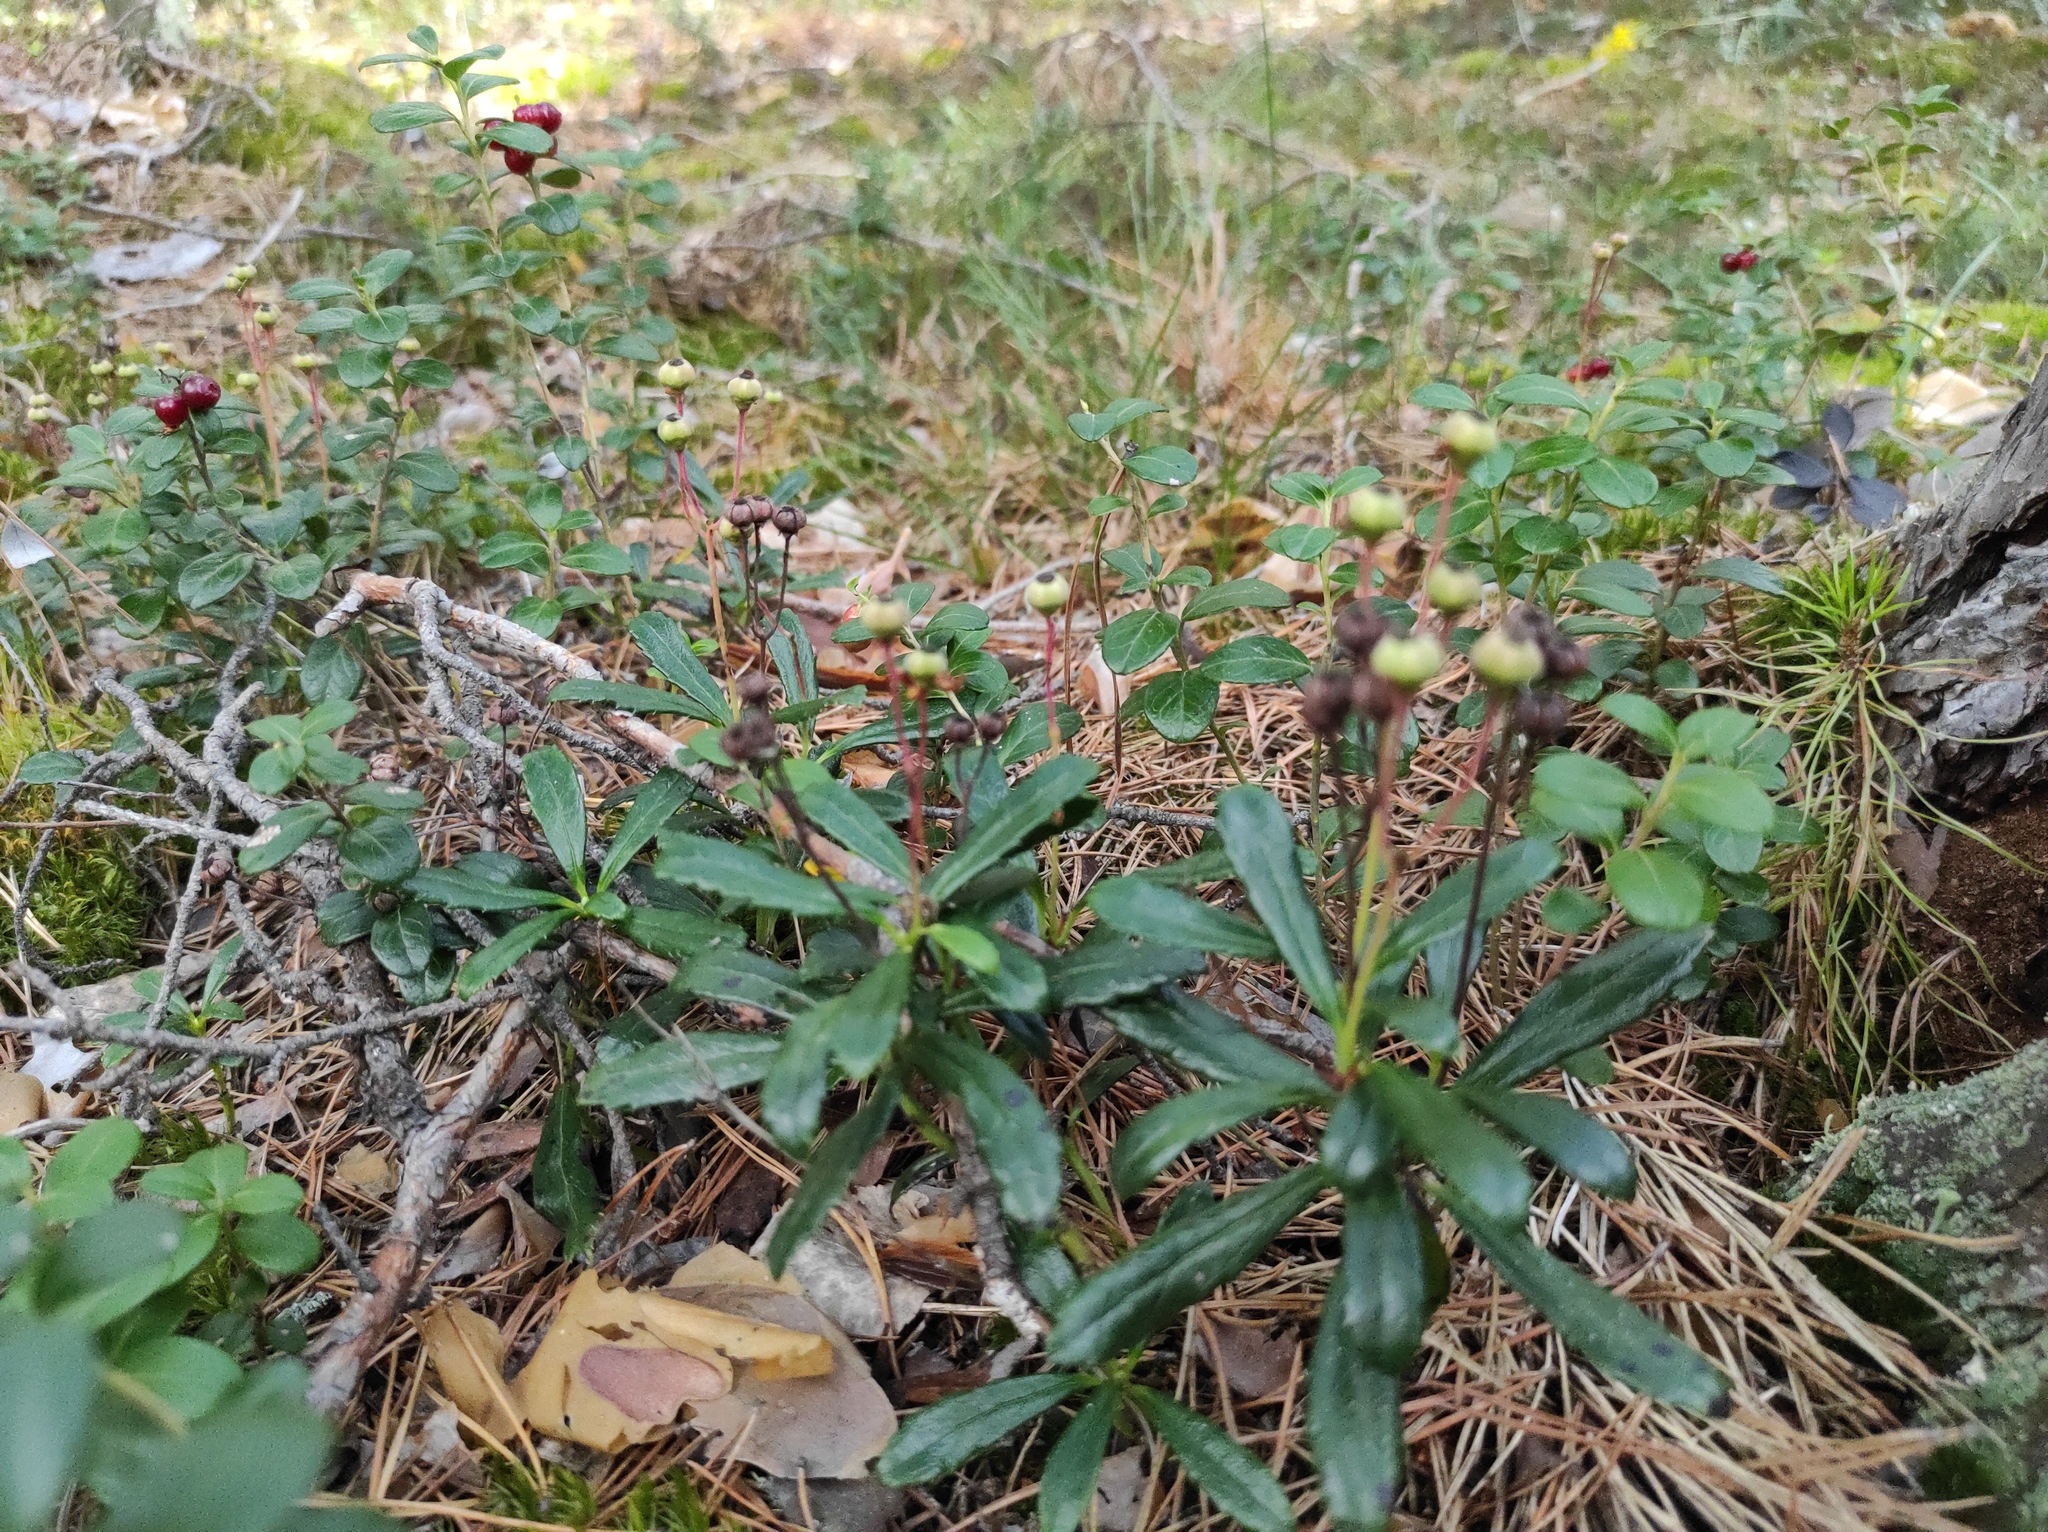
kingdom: Plantae
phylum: Tracheophyta
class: Magnoliopsida
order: Ericales
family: Ericaceae
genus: Chimaphila
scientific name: Chimaphila umbellata
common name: Pipsissewa
